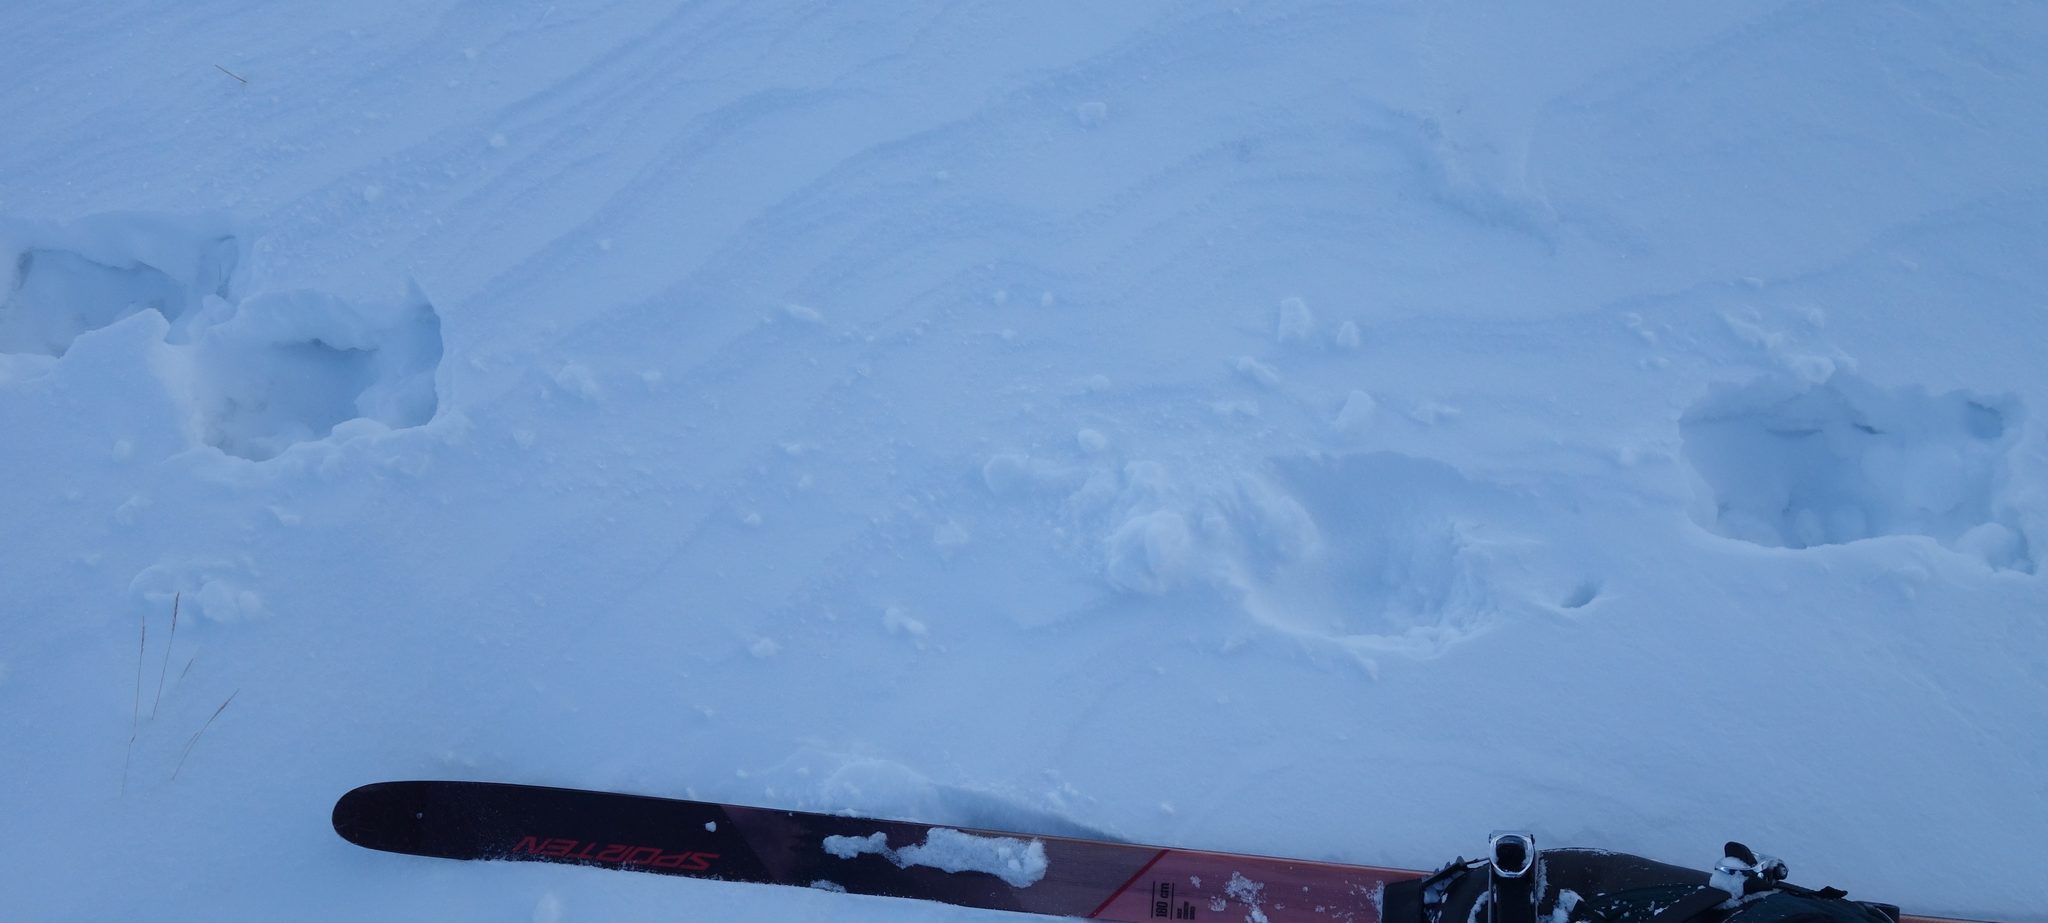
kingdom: Animalia
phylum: Chordata
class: Mammalia
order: Artiodactyla
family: Cervidae
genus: Alces
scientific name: Alces alces
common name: Moose
